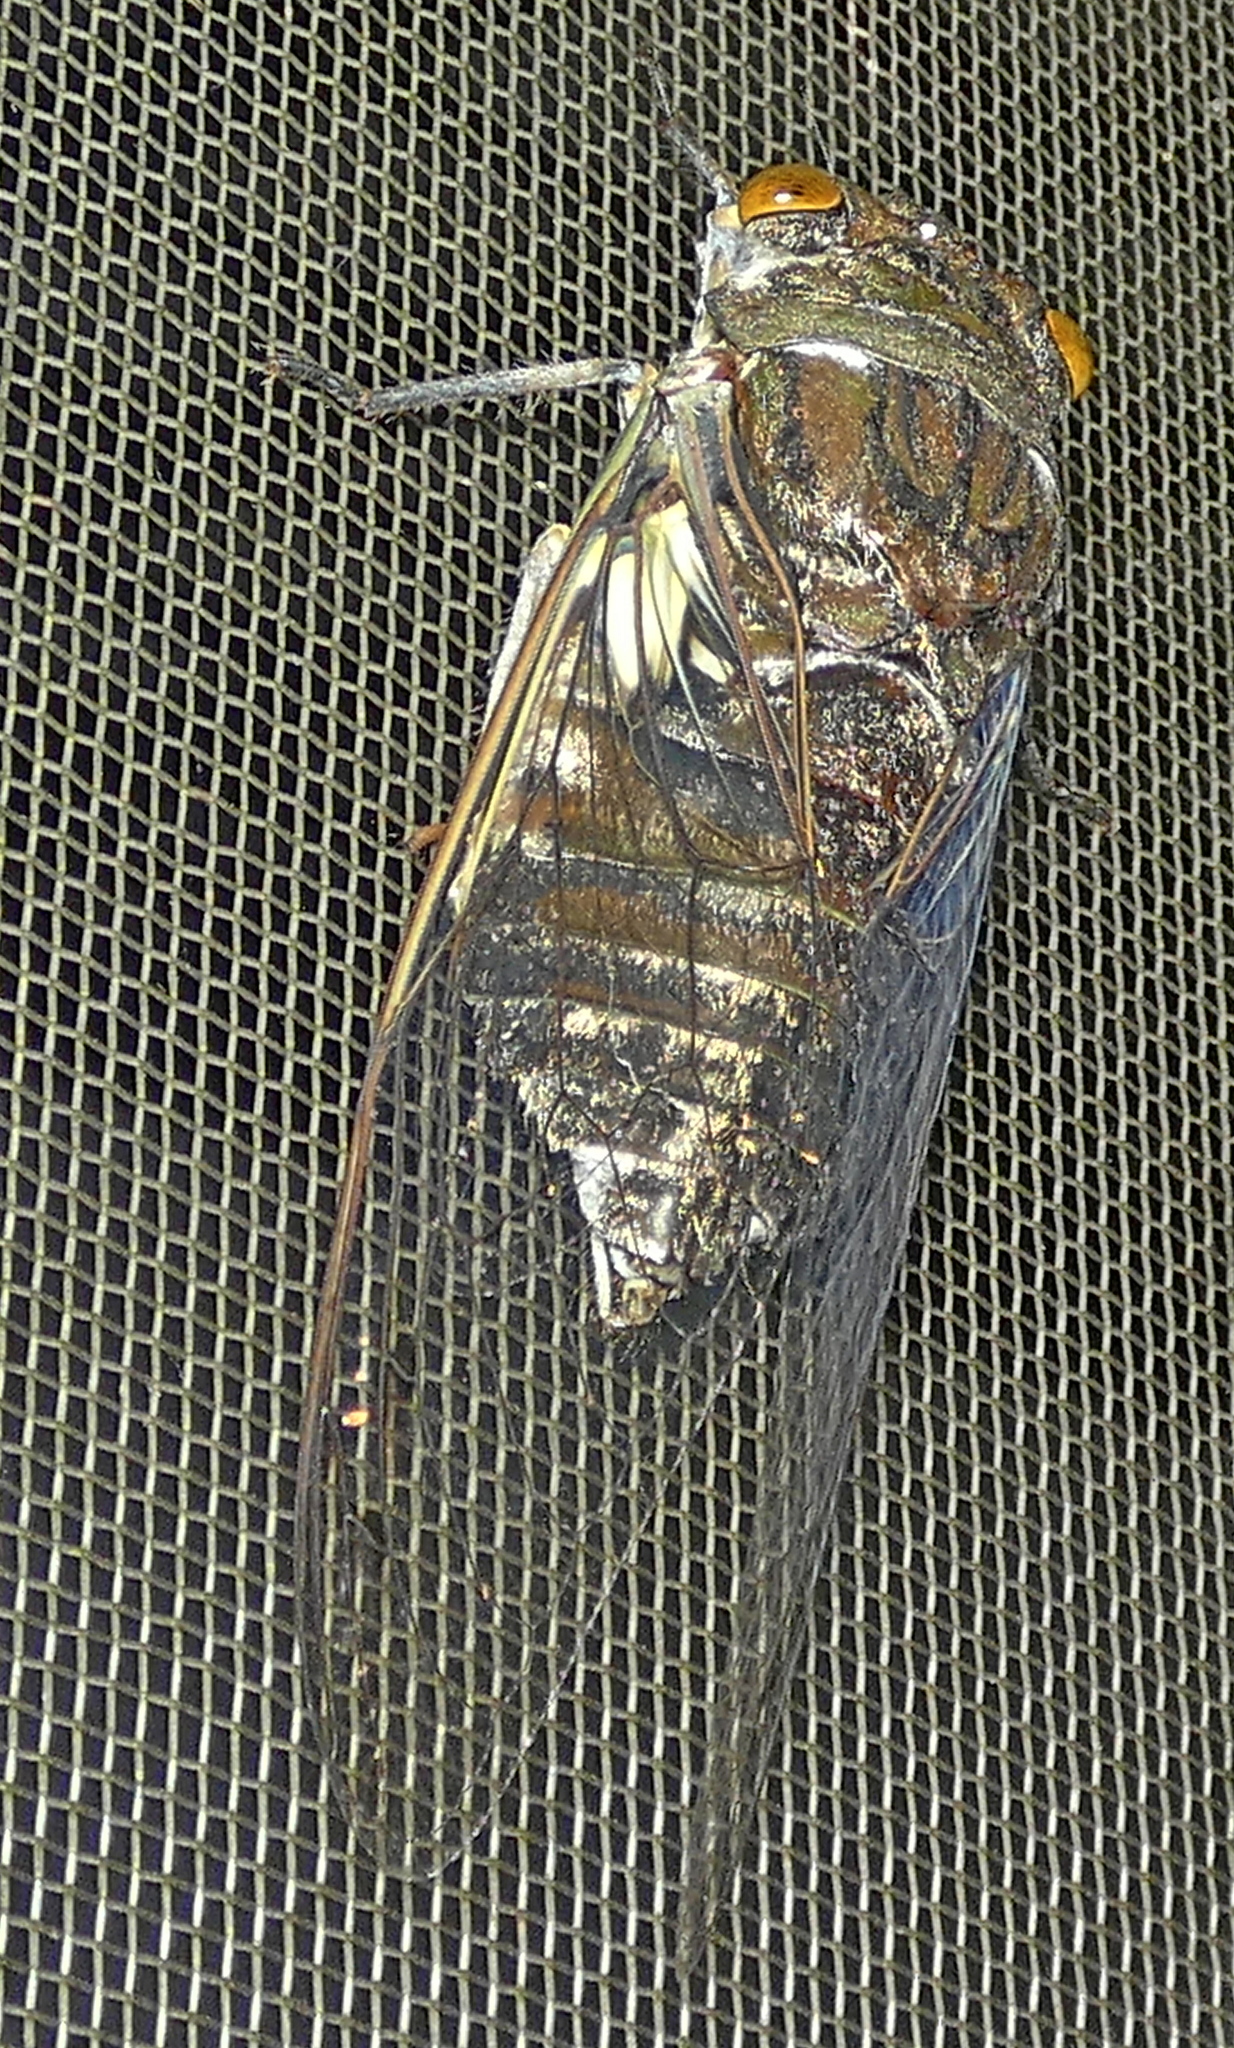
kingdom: Animalia
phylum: Arthropoda
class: Insecta
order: Hemiptera
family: Cicadidae
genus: Quesada
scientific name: Quesada gigas
